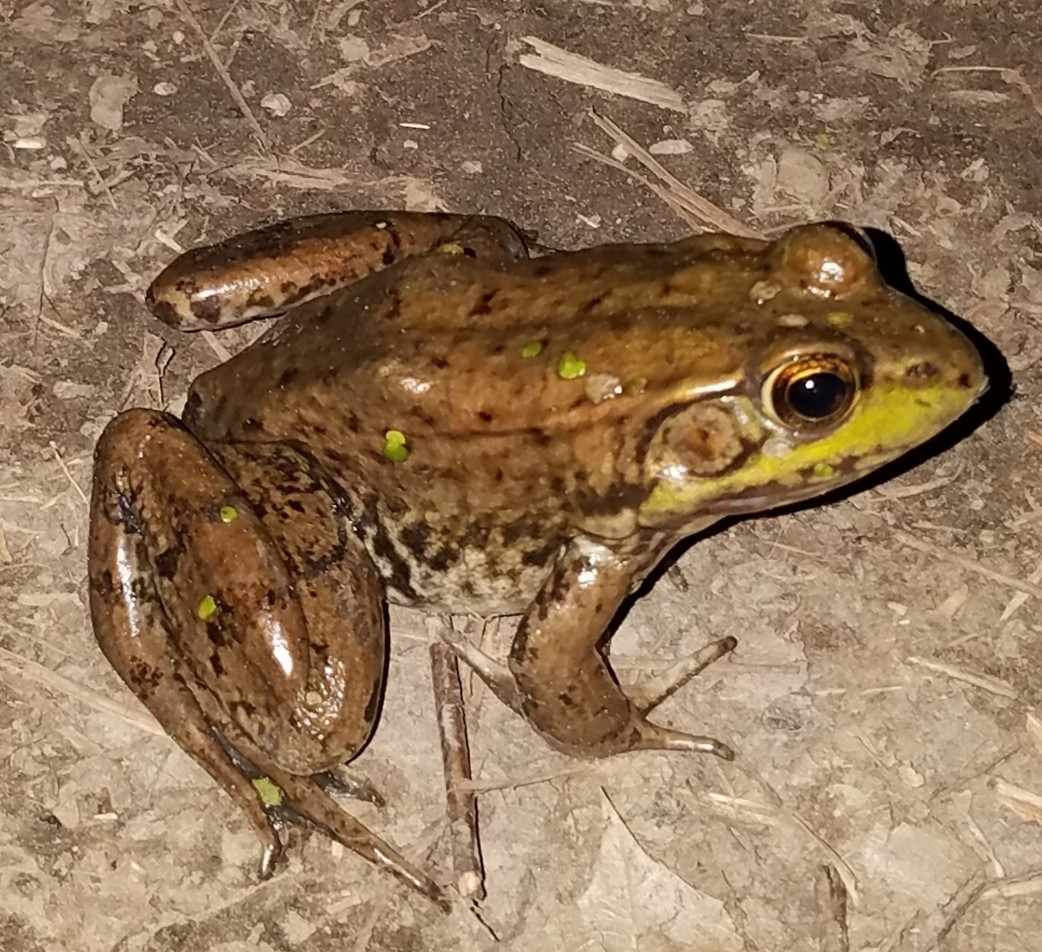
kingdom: Animalia
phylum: Chordata
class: Amphibia
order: Anura
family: Ranidae
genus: Lithobates
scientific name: Lithobates clamitans
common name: Green frog
